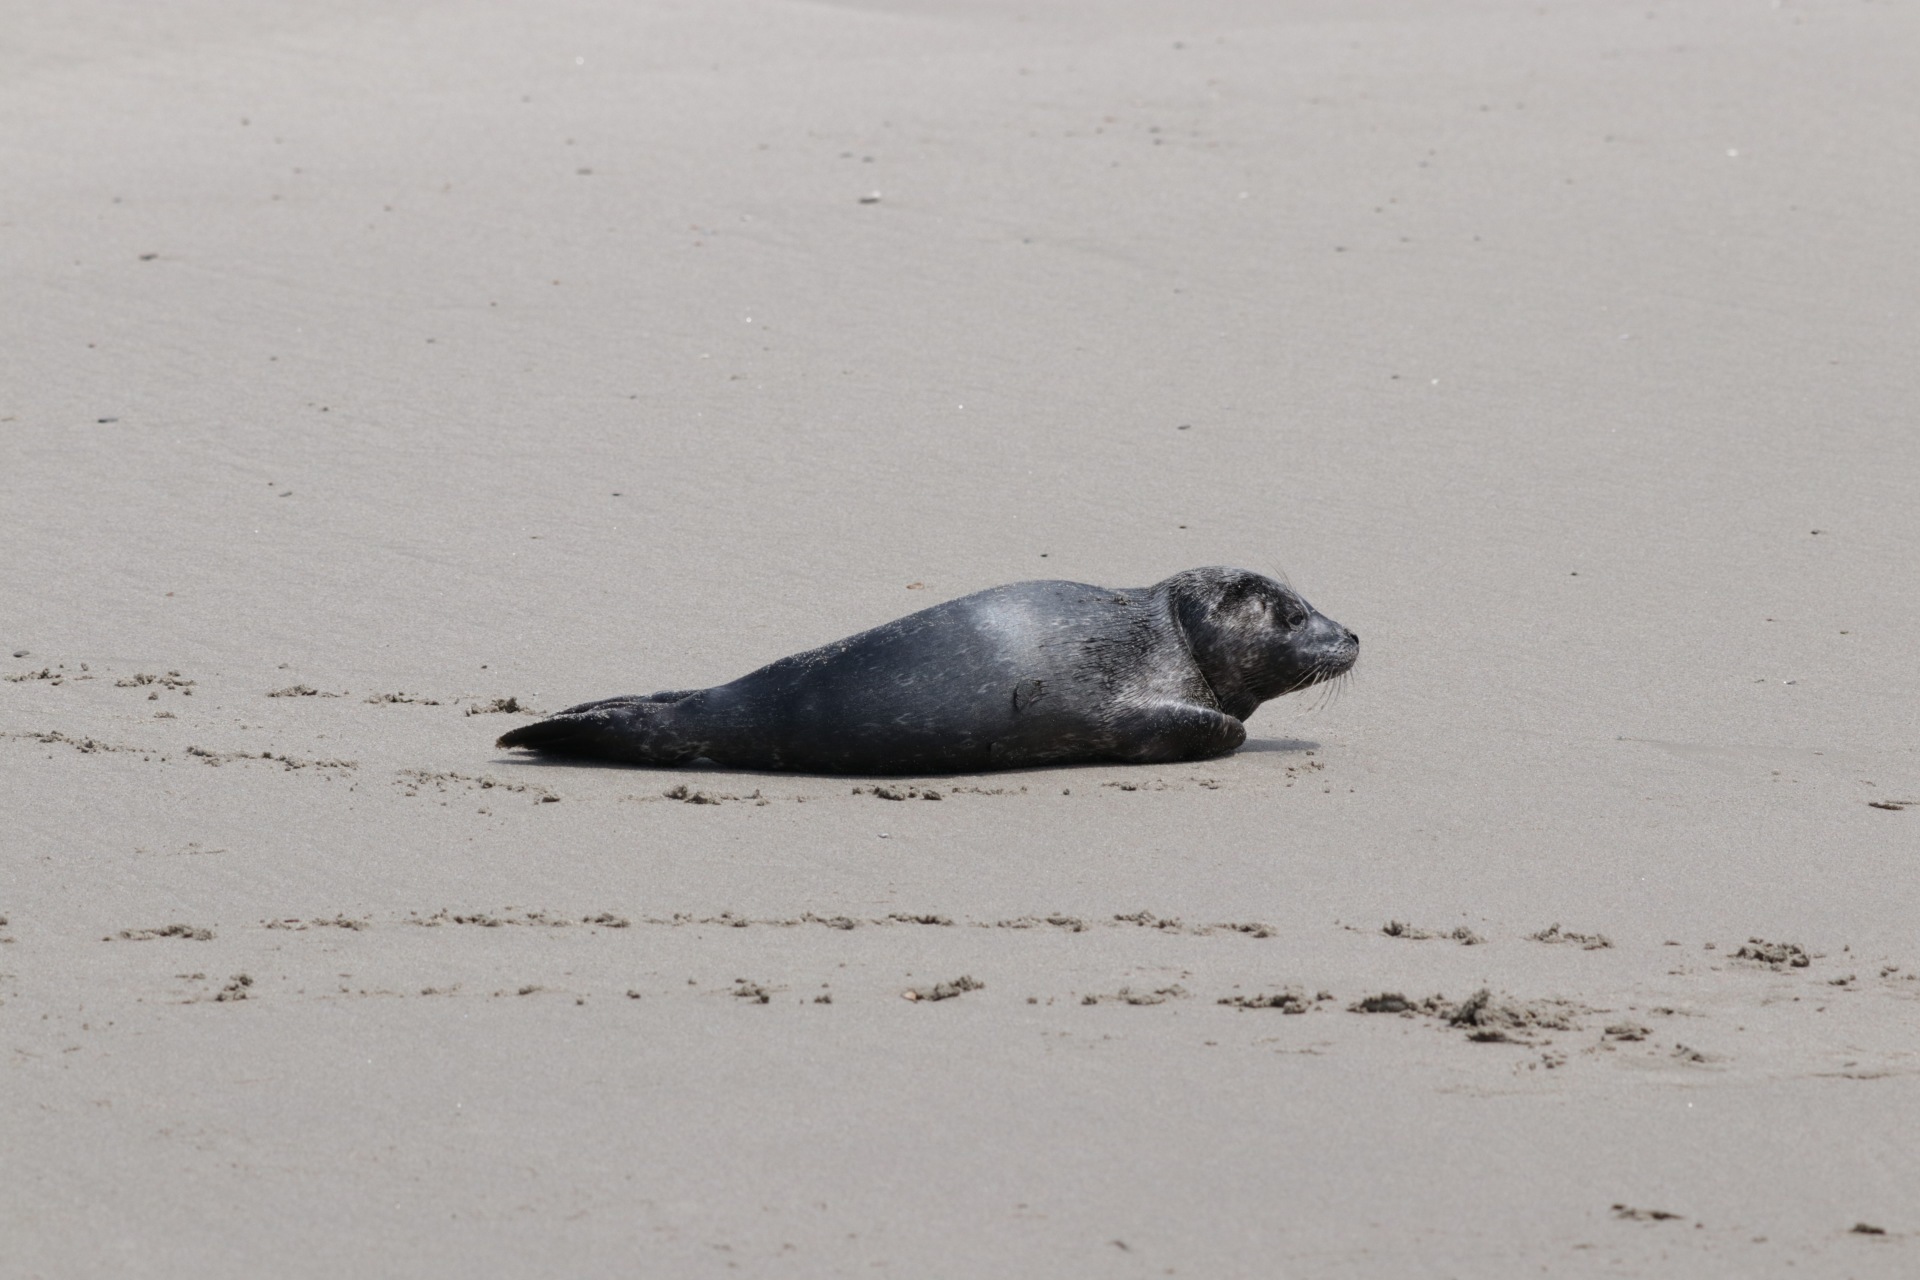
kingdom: Animalia
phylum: Chordata
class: Mammalia
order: Carnivora
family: Phocidae
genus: Phoca
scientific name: Phoca vitulina
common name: Harbor seal
